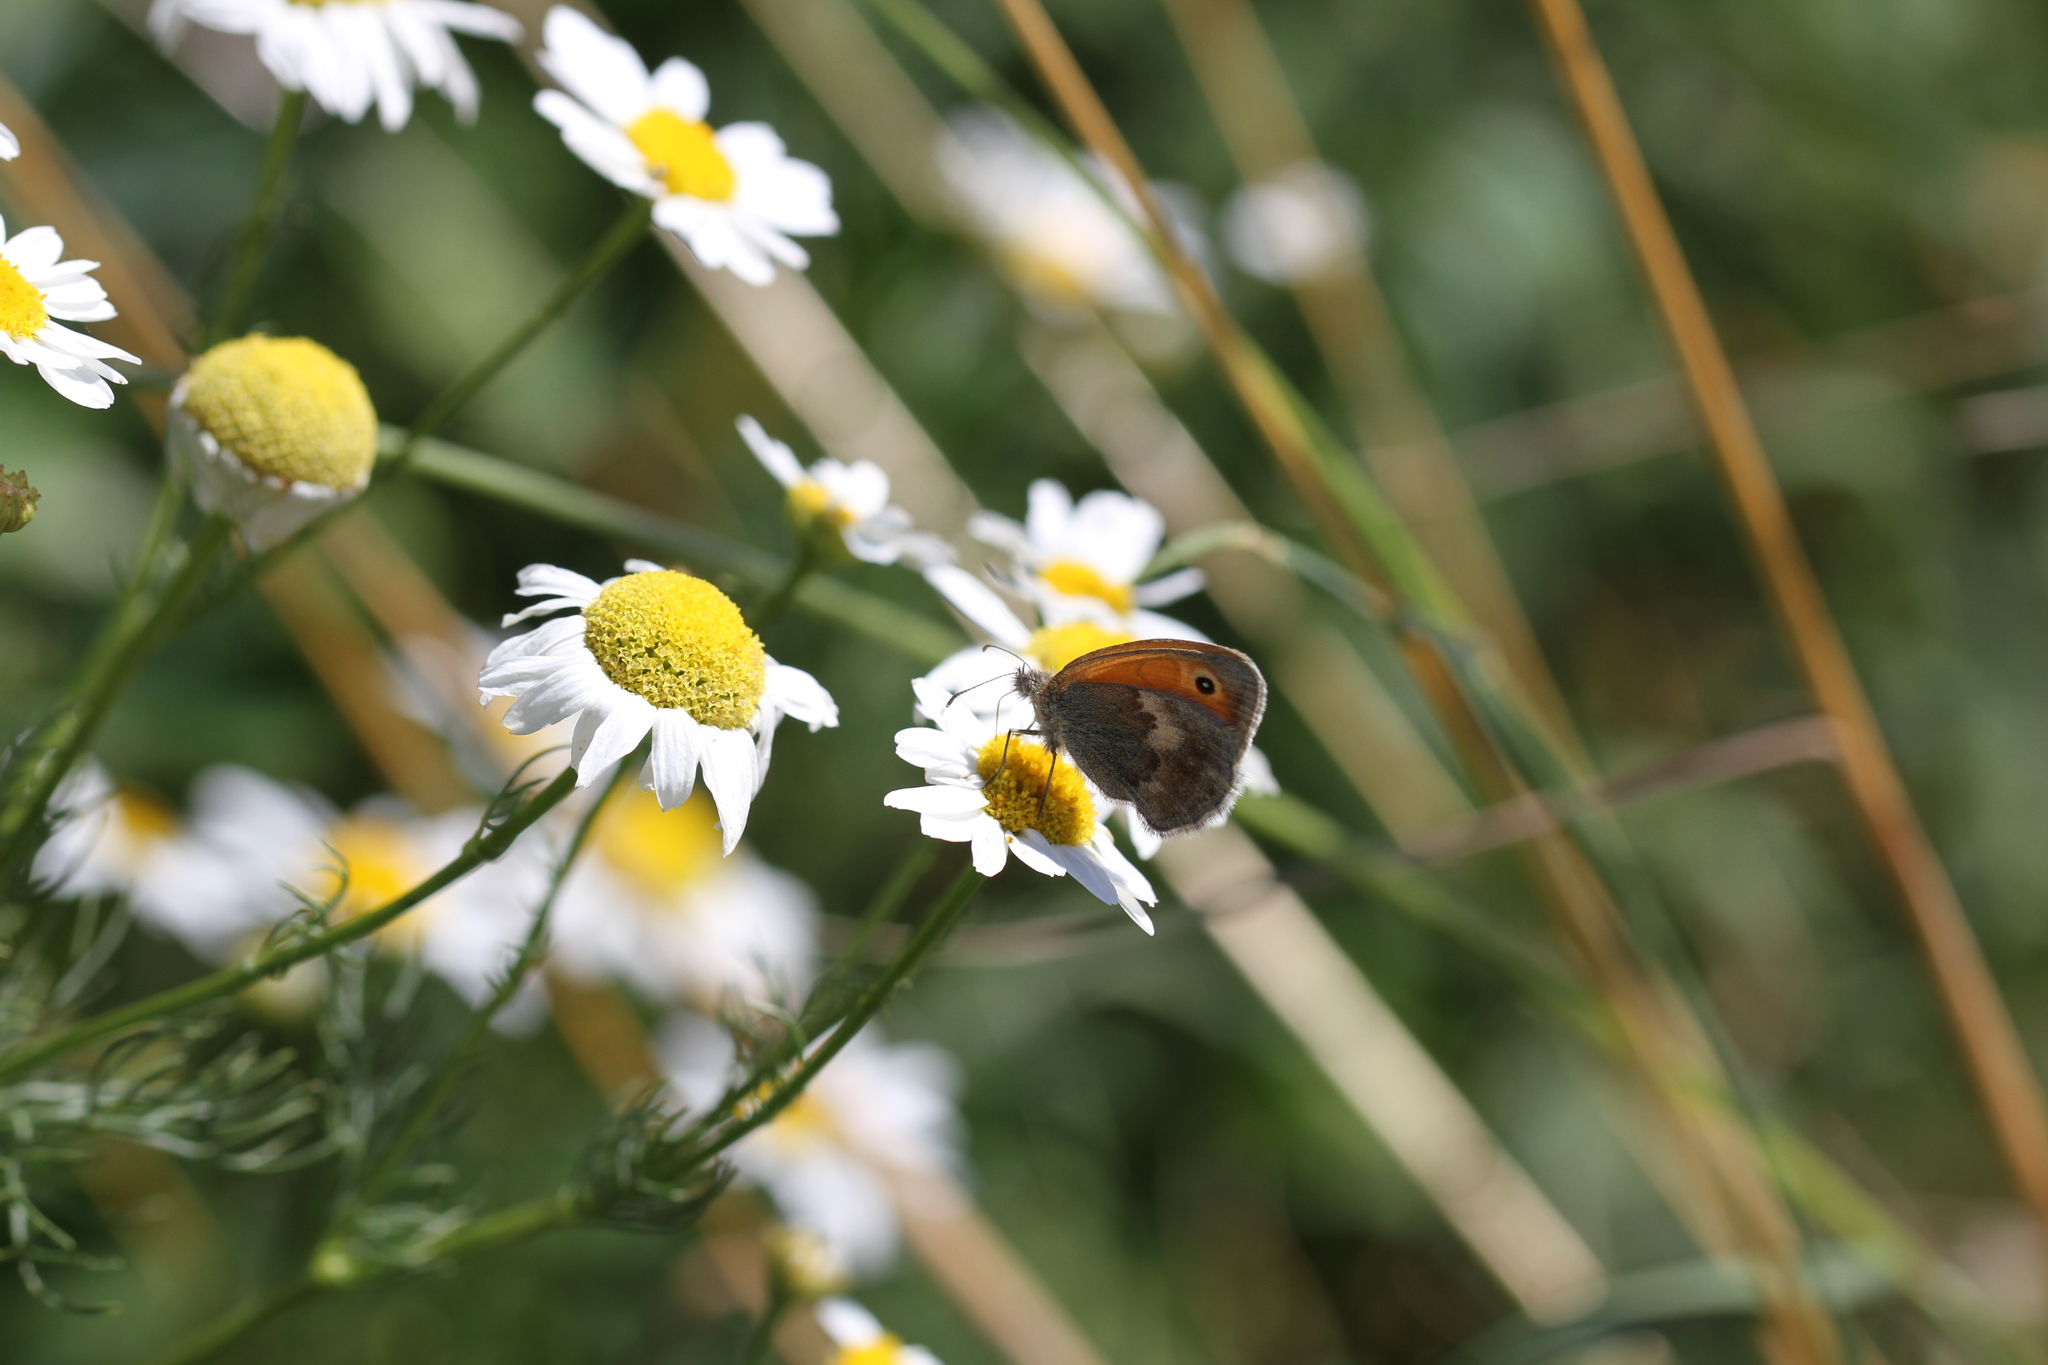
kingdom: Animalia
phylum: Arthropoda
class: Insecta
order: Lepidoptera
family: Nymphalidae
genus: Coenonympha
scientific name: Coenonympha pamphilus
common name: Small heath
